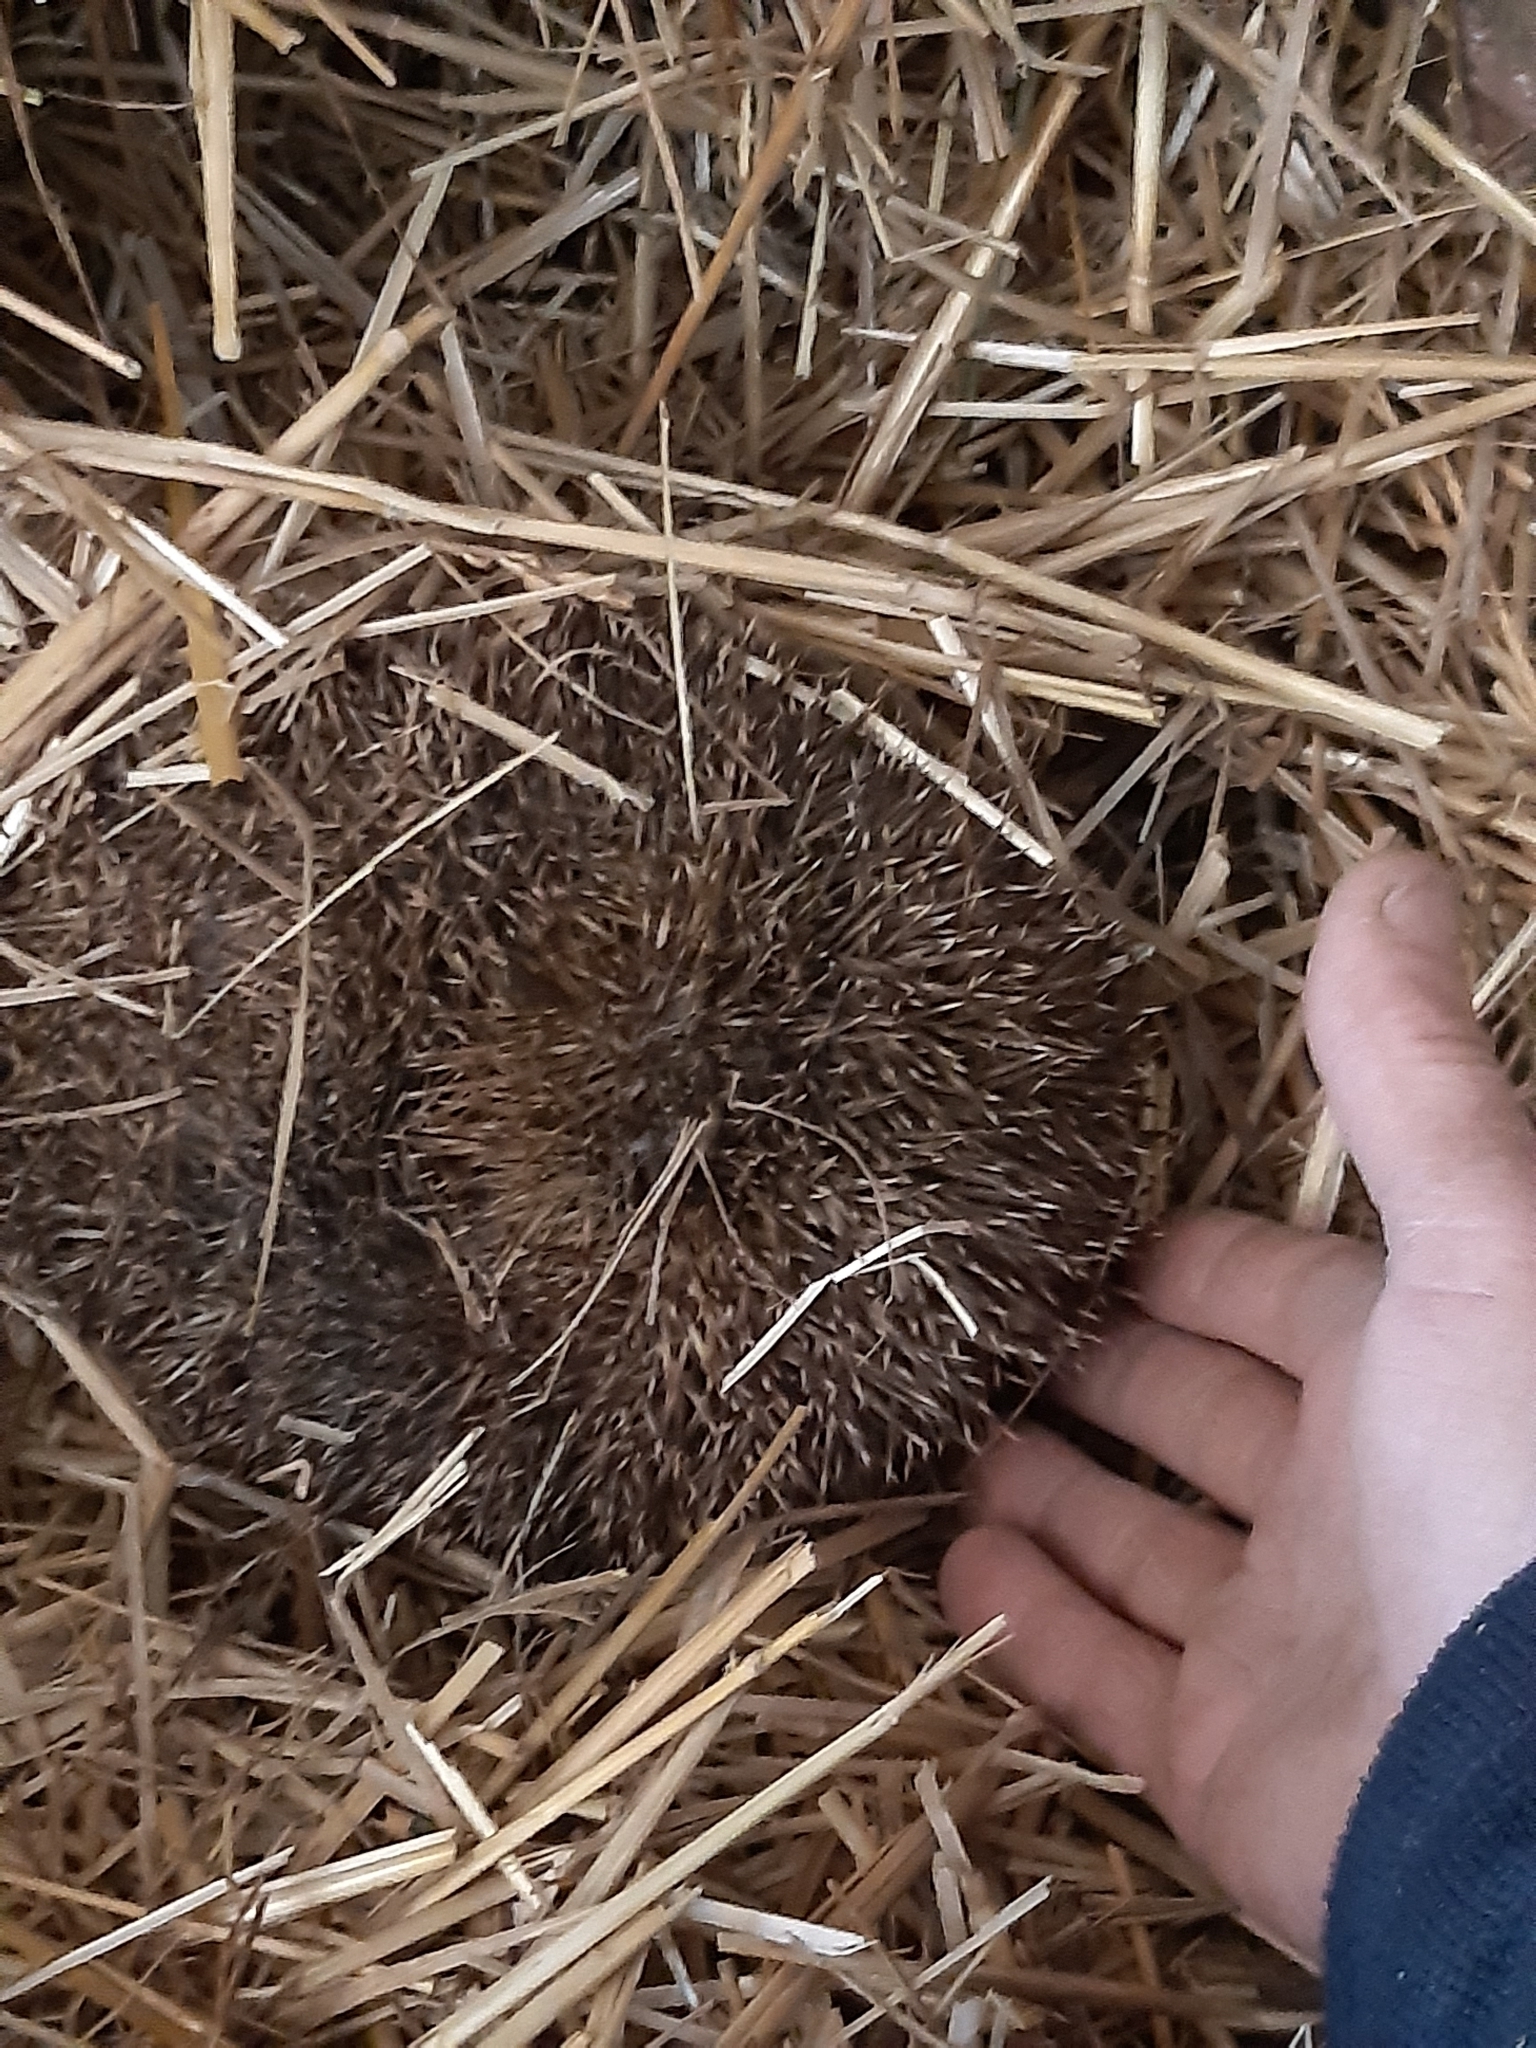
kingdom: Animalia
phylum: Chordata
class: Mammalia
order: Erinaceomorpha
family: Erinaceidae
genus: Erinaceus
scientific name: Erinaceus europaeus
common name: West european hedgehog
